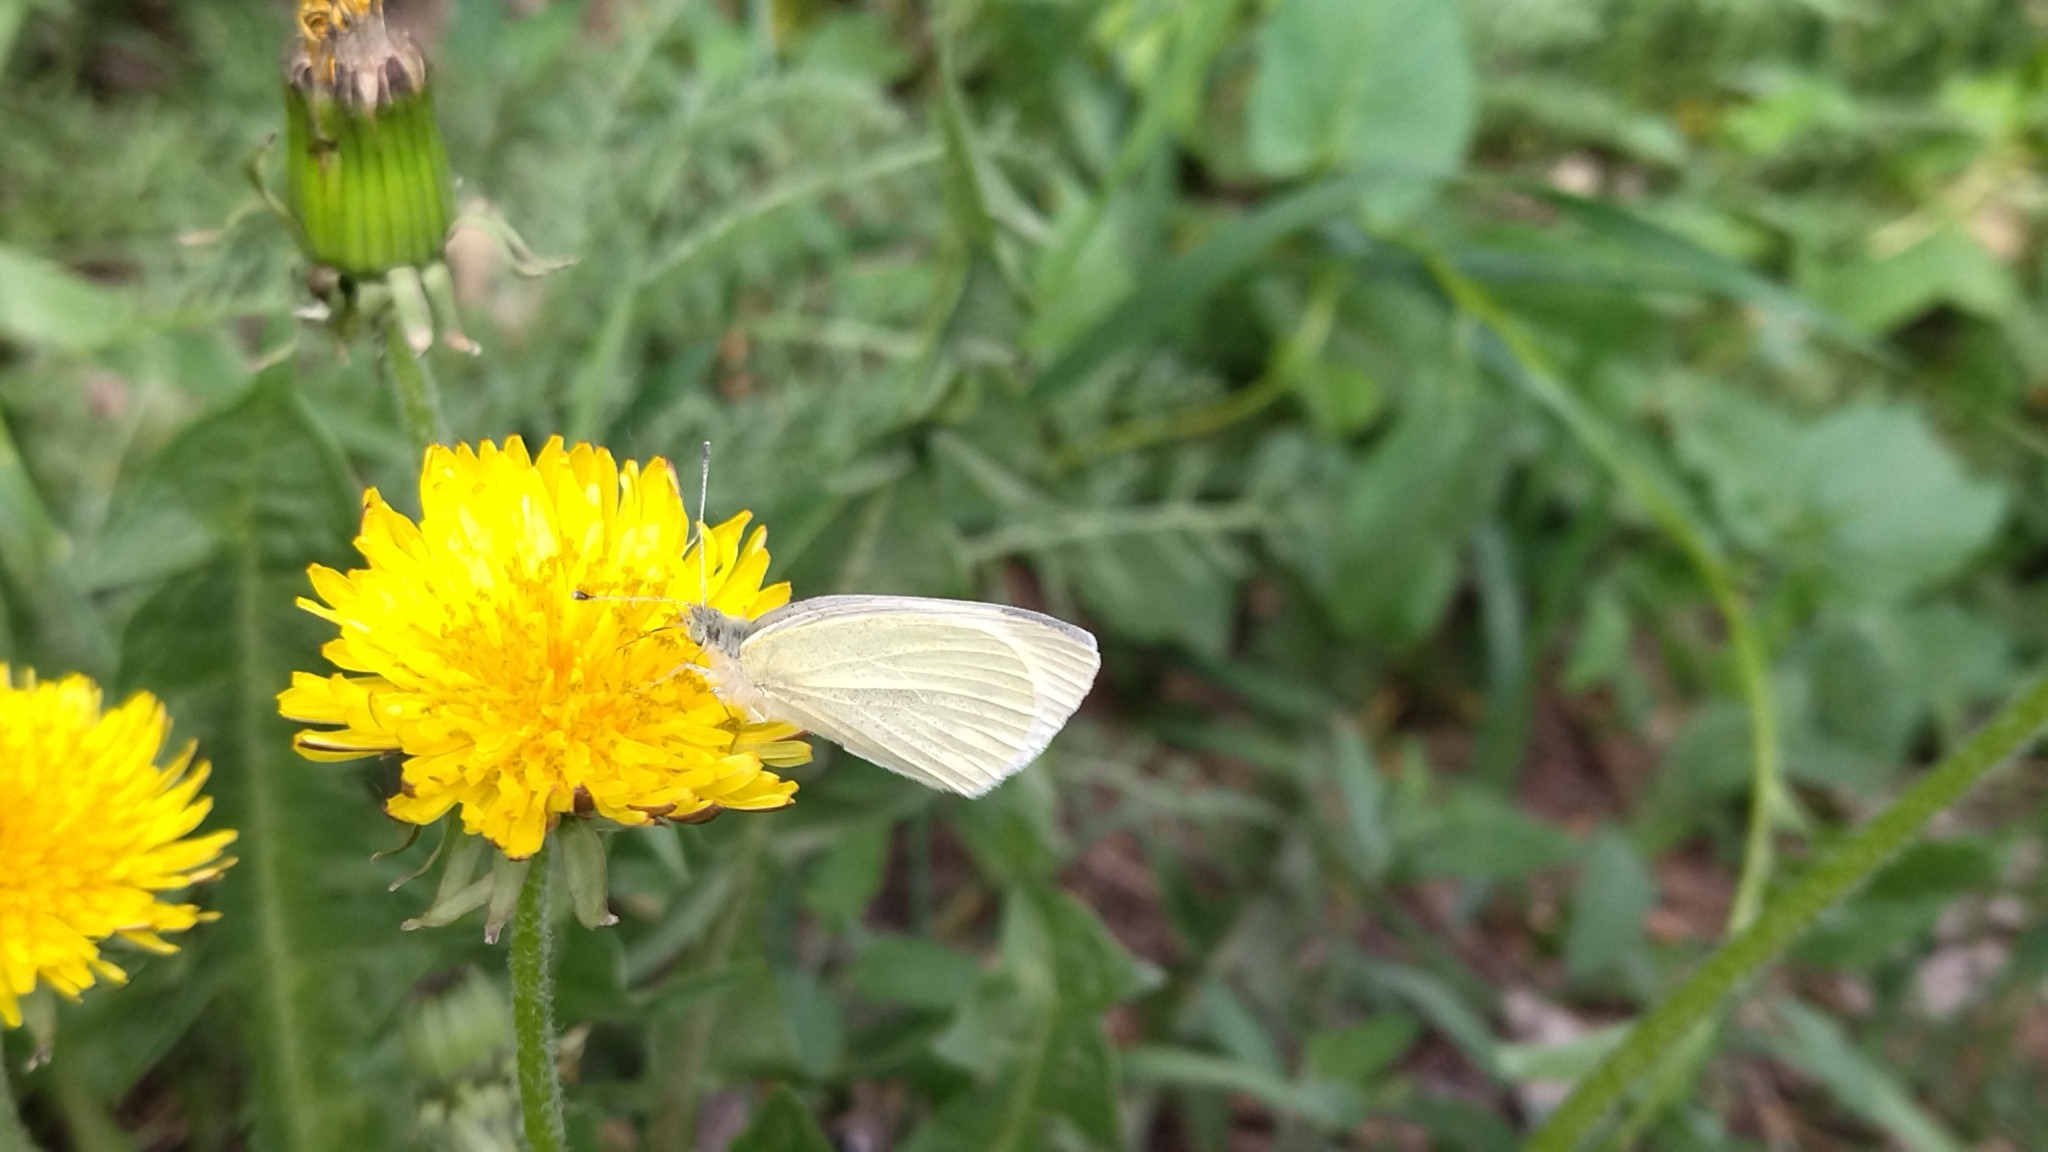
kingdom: Animalia
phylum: Arthropoda
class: Insecta
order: Lepidoptera
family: Pieridae
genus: Pieris
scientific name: Pieris rapae
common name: Small white
